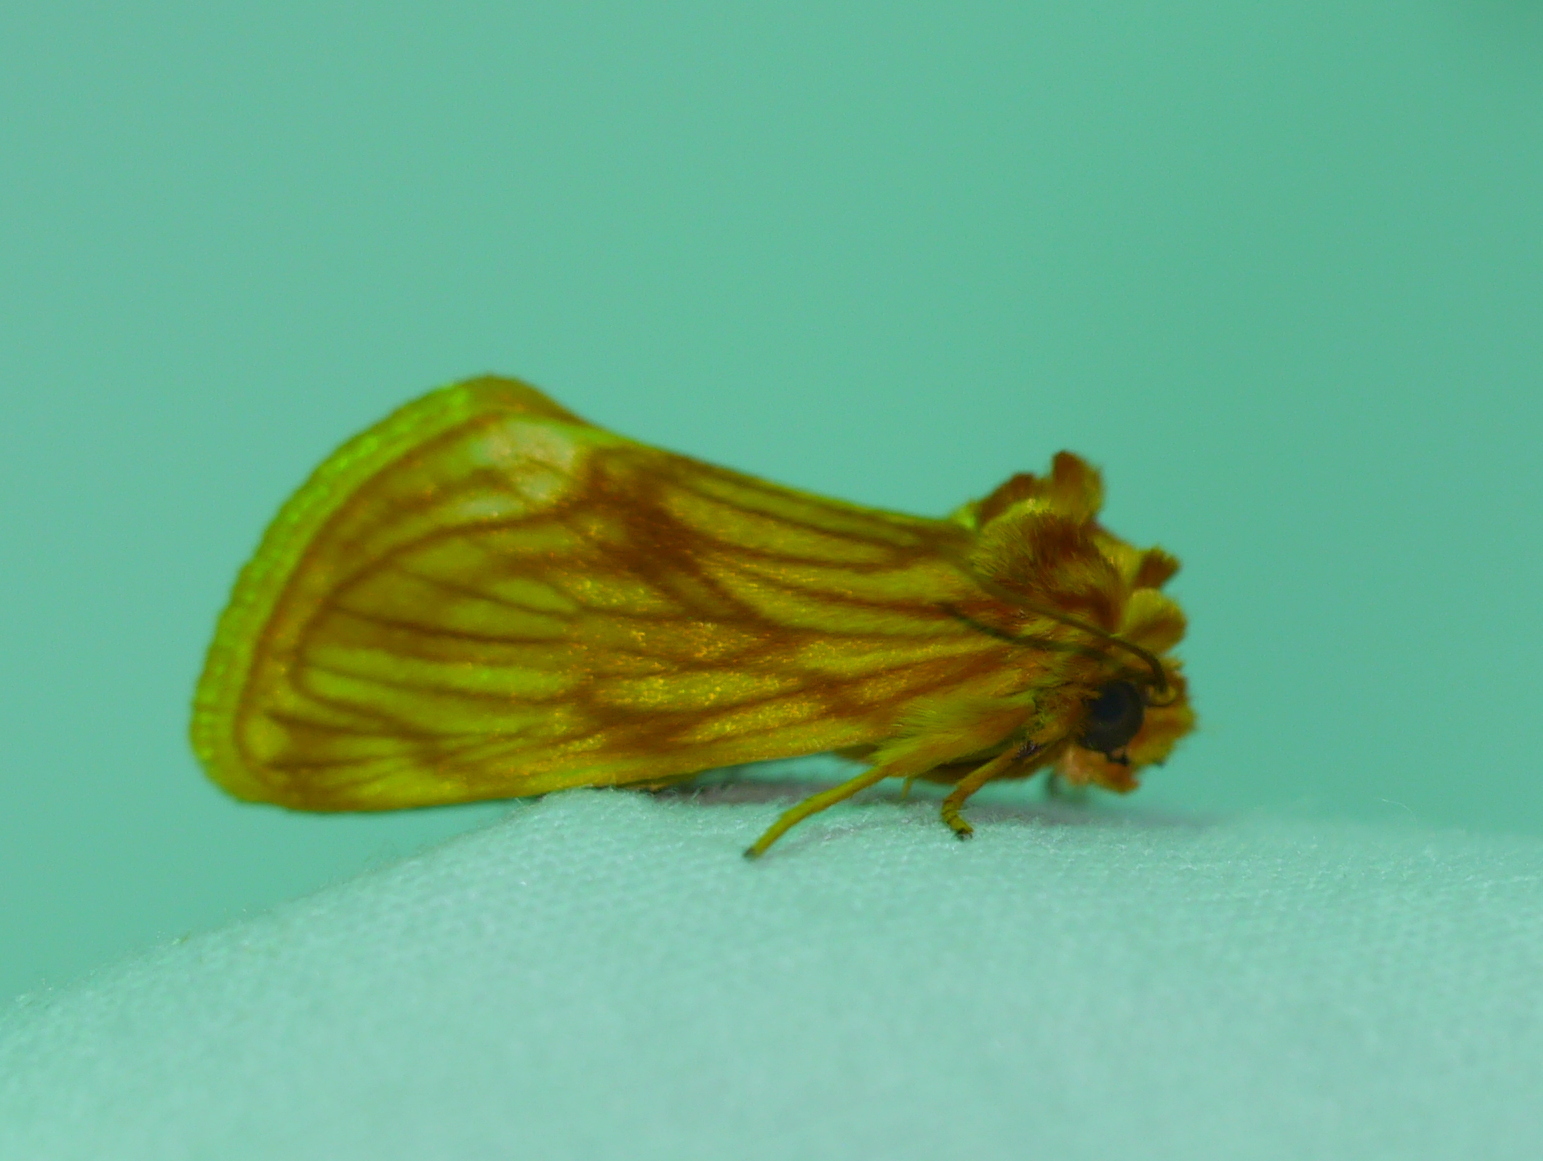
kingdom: Animalia
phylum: Arthropoda
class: Insecta
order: Lepidoptera
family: Noctuidae
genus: Cirrhophanus
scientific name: Cirrhophanus pretiosa
